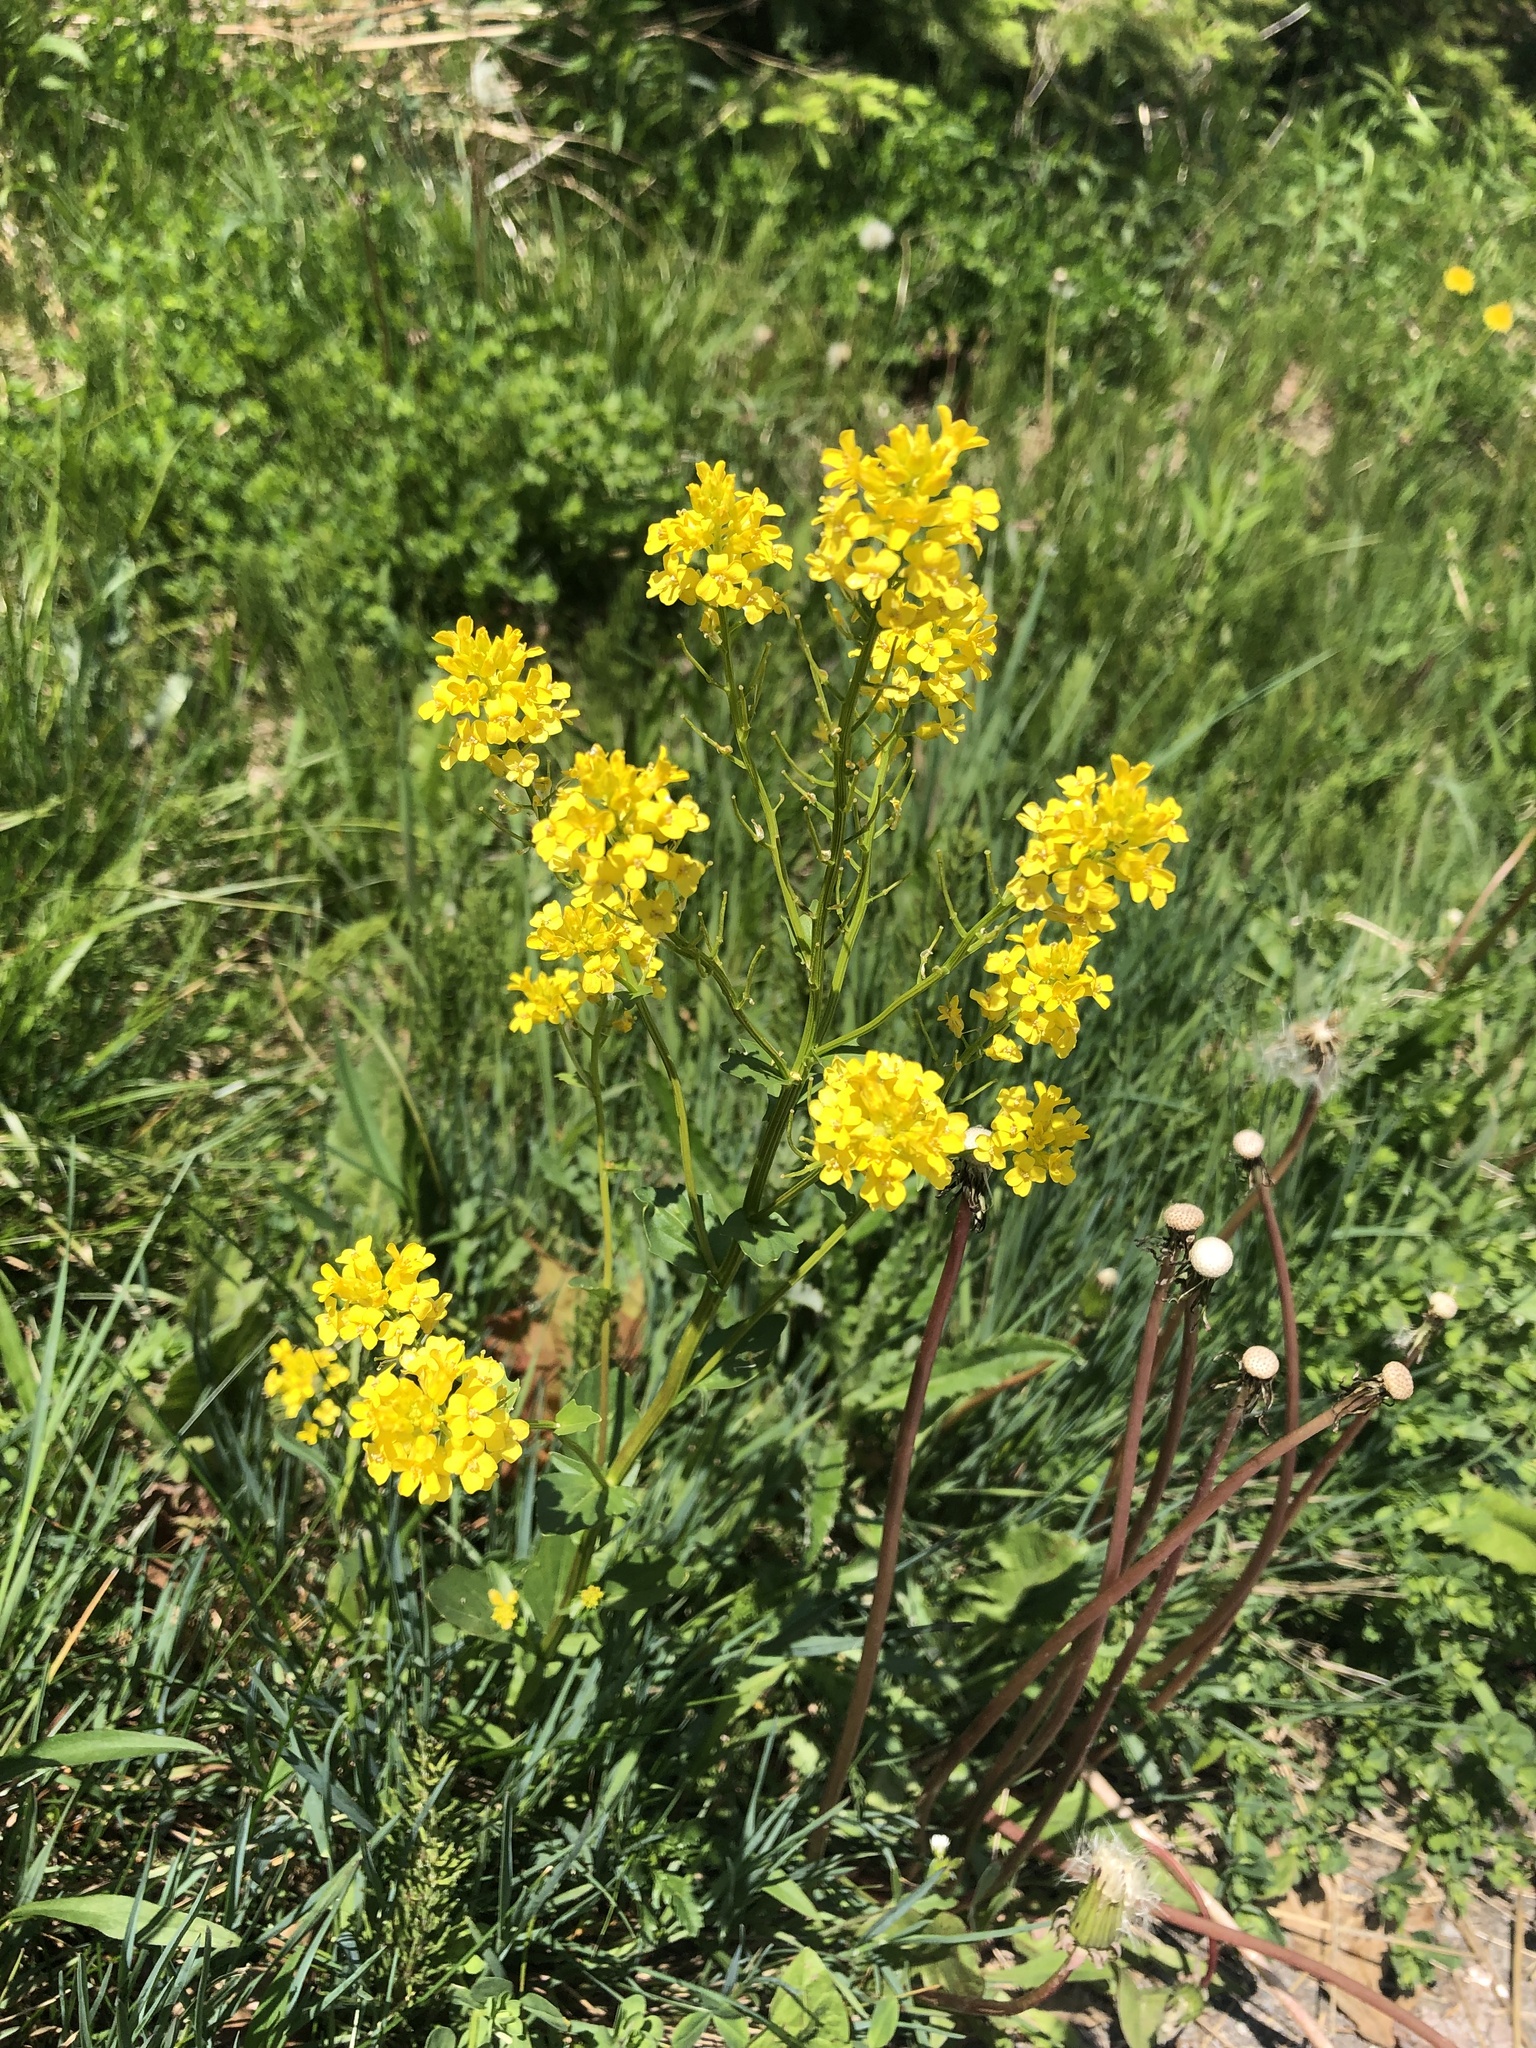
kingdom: Plantae
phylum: Tracheophyta
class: Magnoliopsida
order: Brassicales
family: Brassicaceae
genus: Barbarea
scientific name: Barbarea vulgaris
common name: Cressy-greens
